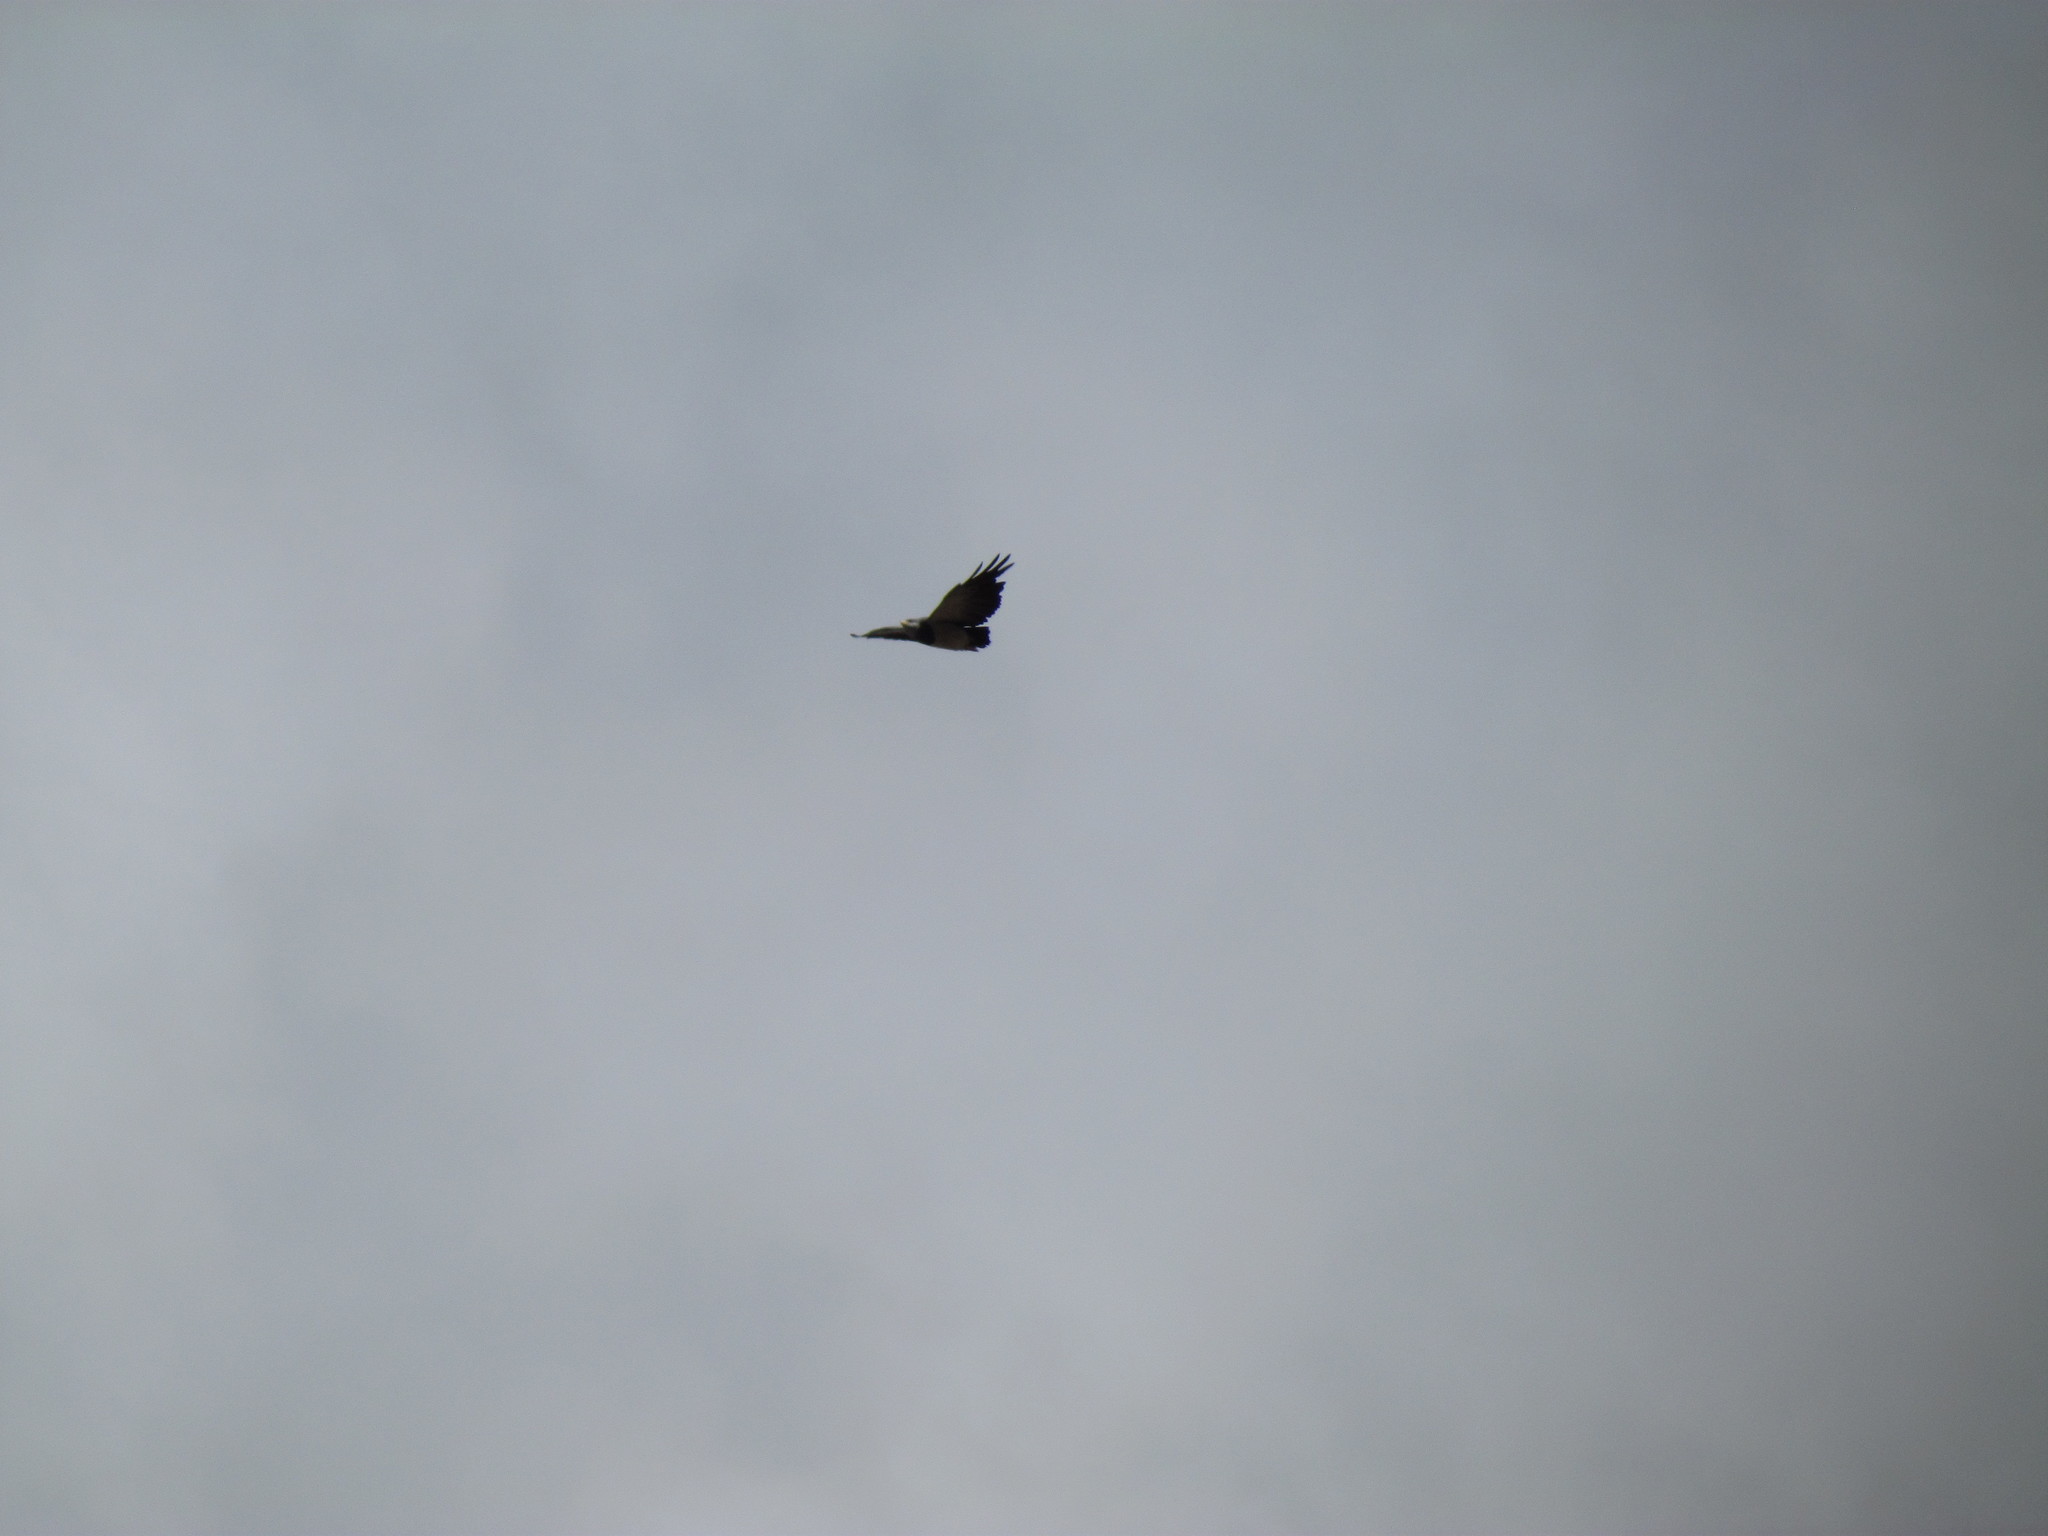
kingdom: Animalia
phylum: Chordata
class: Aves
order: Accipitriformes
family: Accipitridae
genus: Geranoaetus
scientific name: Geranoaetus melanoleucus
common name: Black-chested buzzard-eagle
